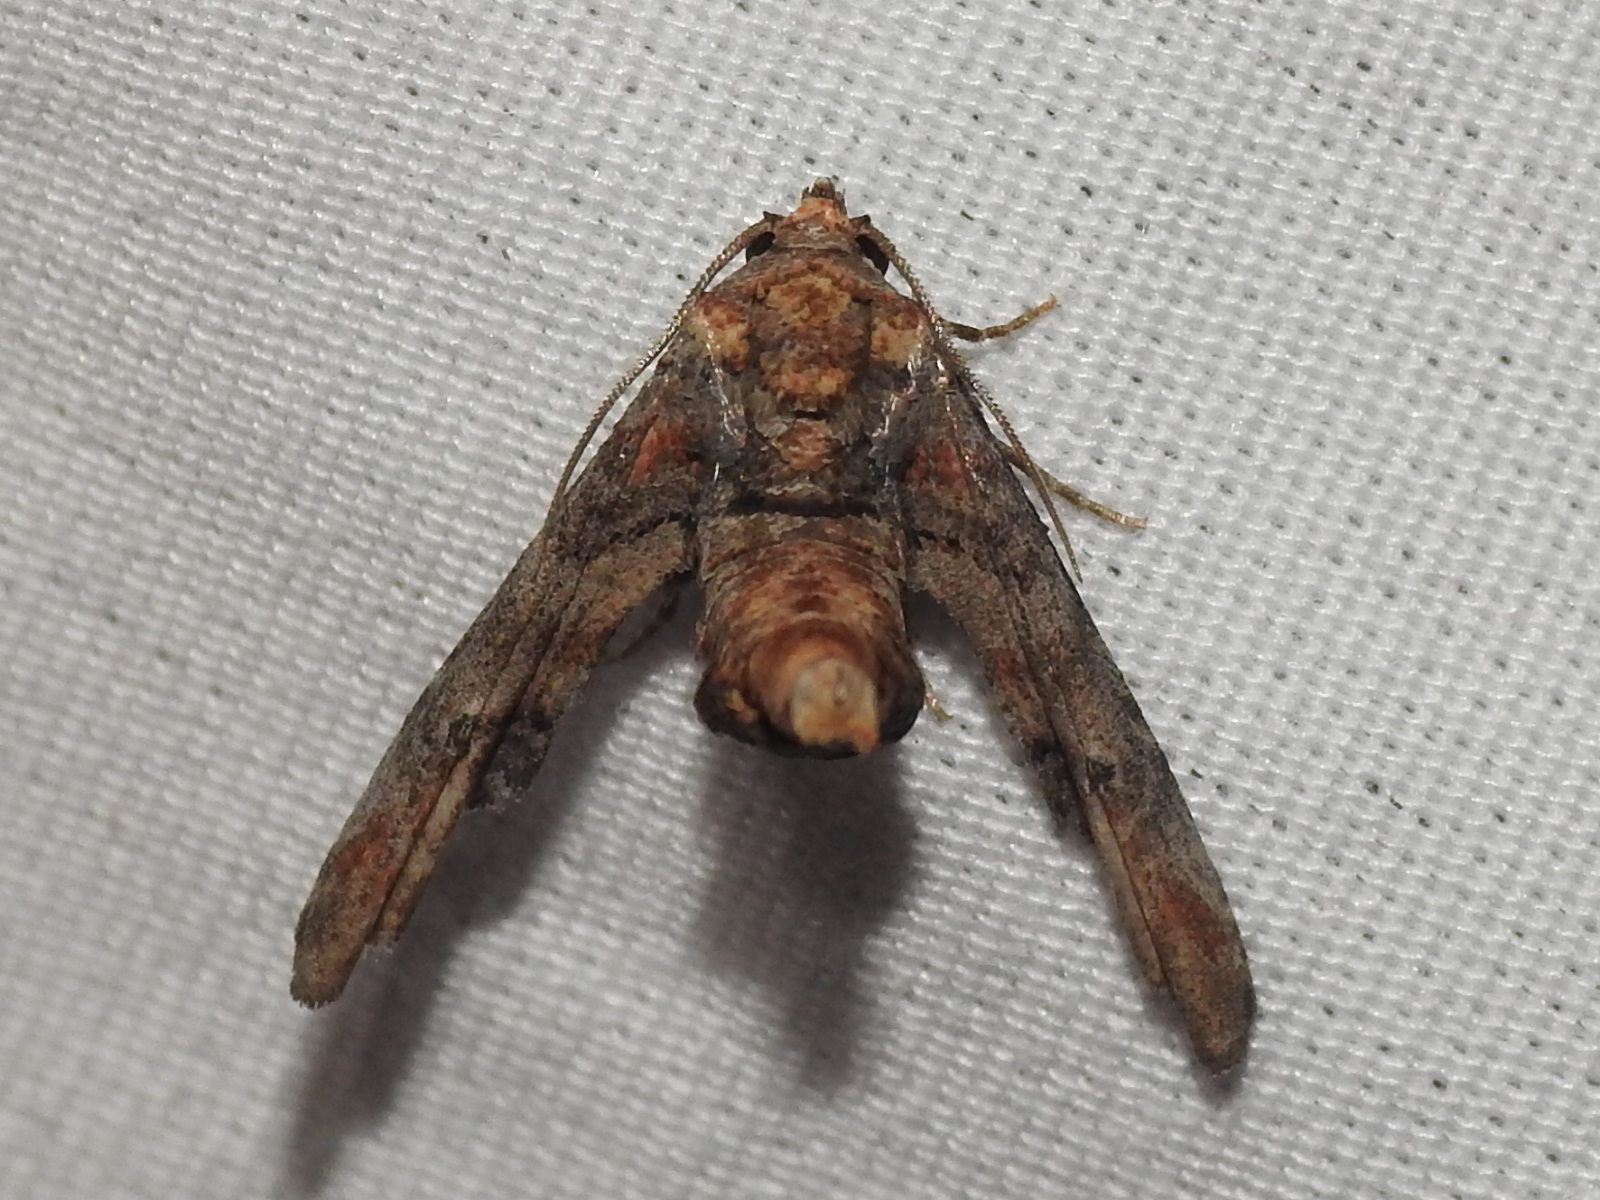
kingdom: Animalia
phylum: Arthropoda
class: Insecta
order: Lepidoptera
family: Euteliidae
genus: Marathyssa
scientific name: Marathyssa inficita
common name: Dark marathyssa moth
